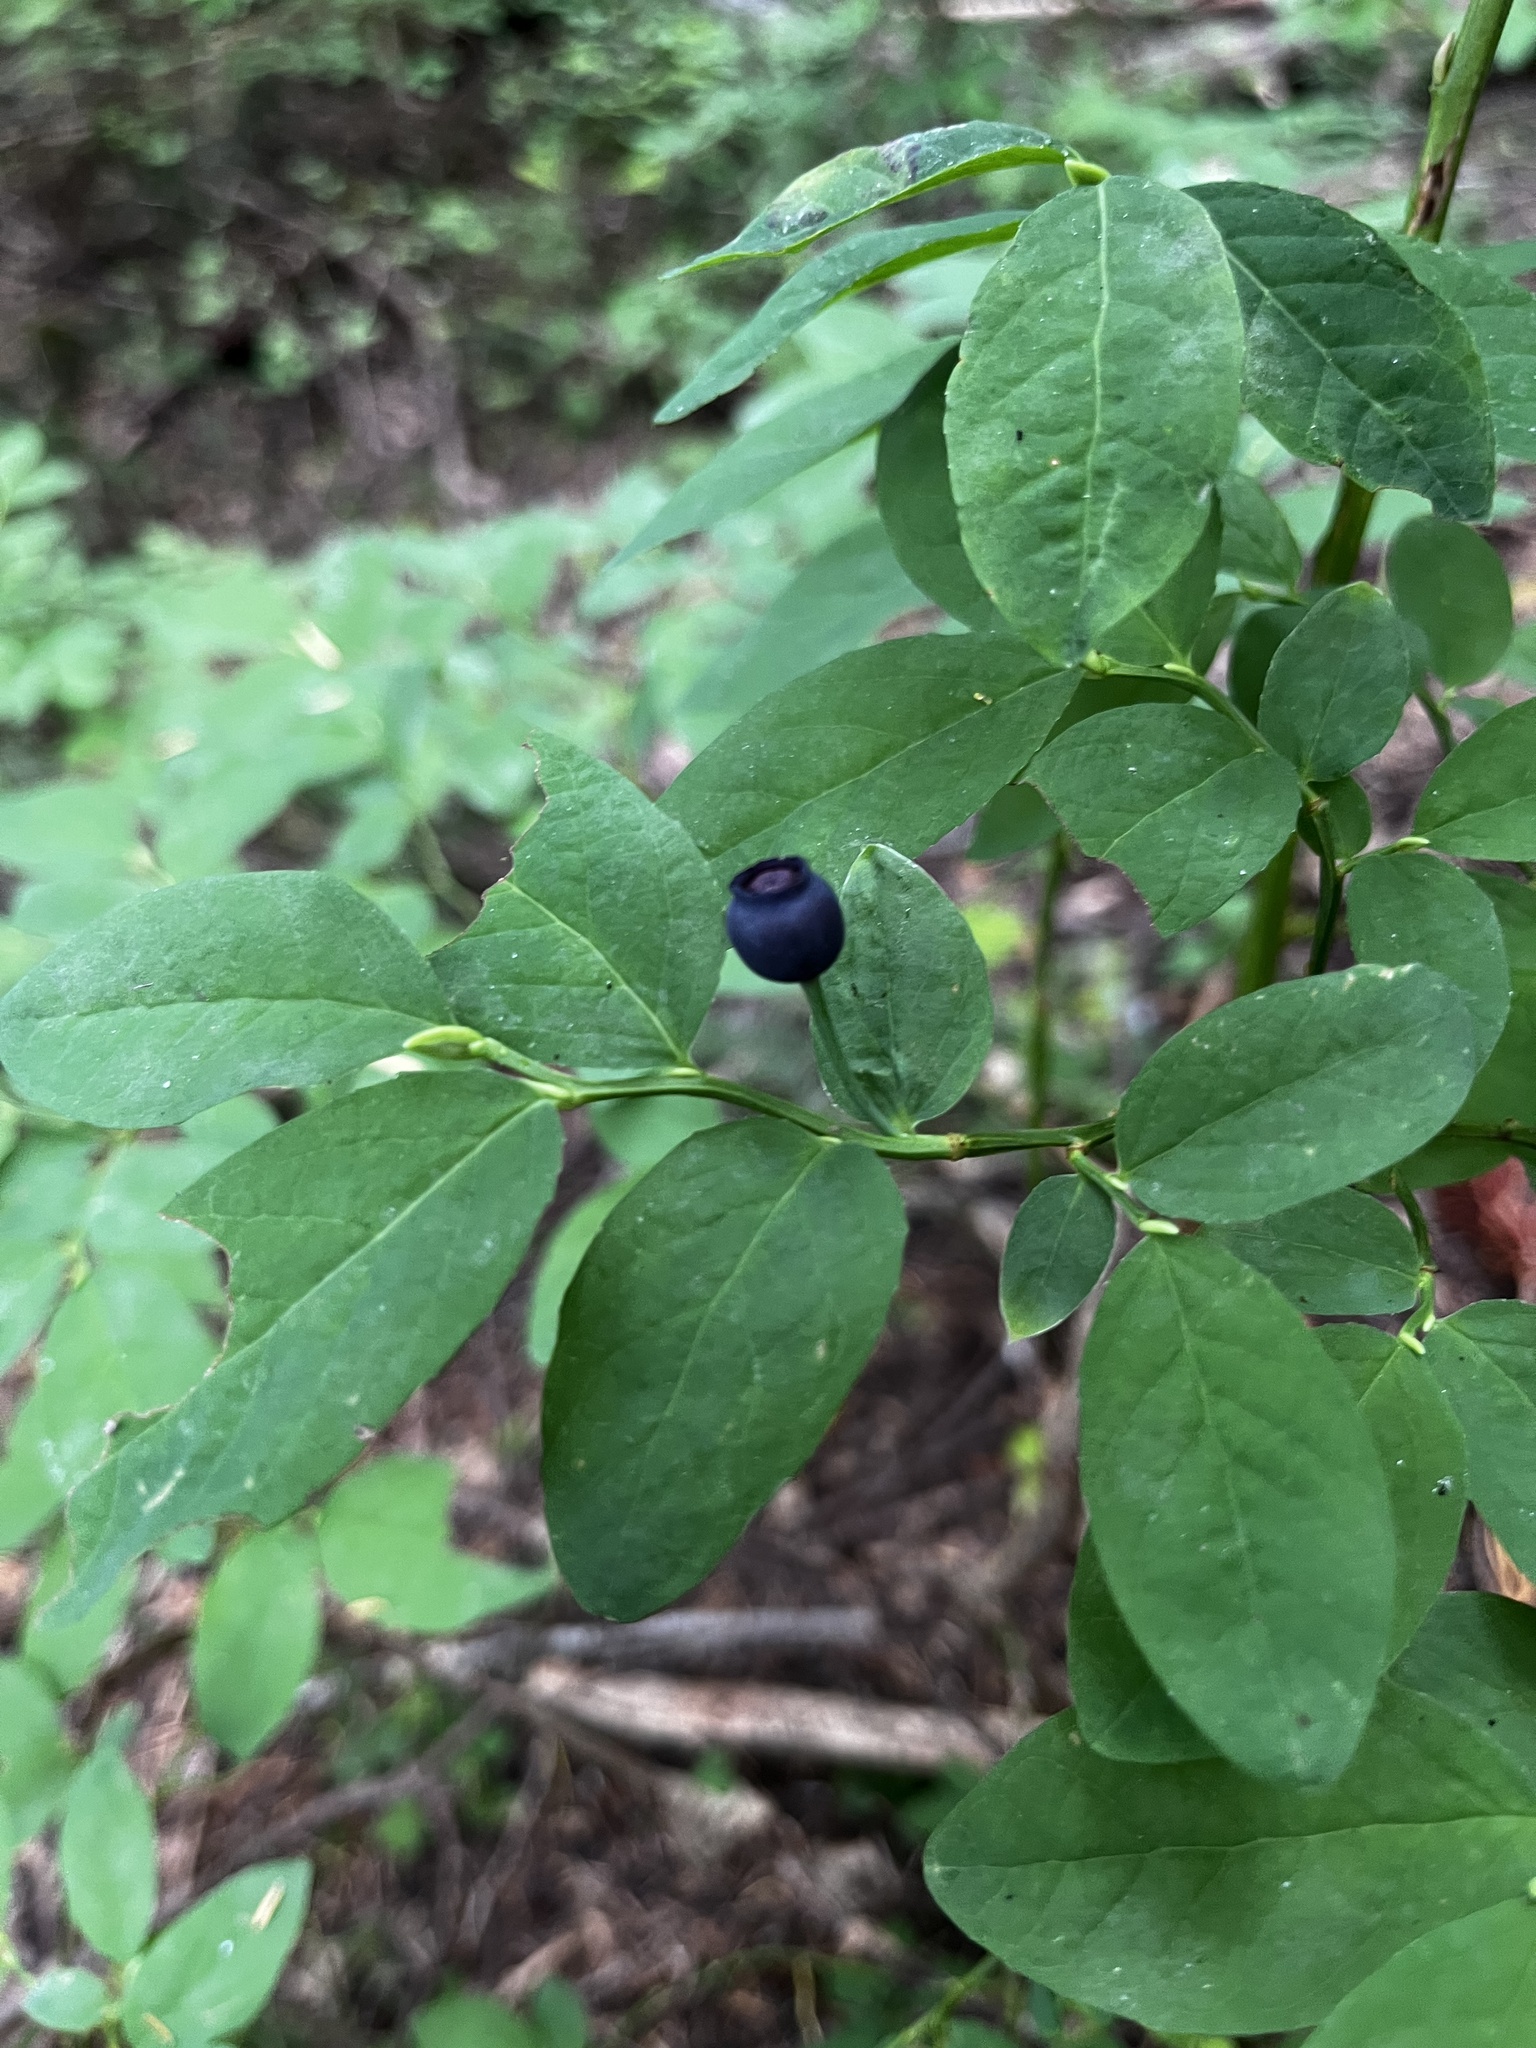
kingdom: Plantae
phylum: Tracheophyta
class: Magnoliopsida
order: Ericales
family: Ericaceae
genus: Vaccinium
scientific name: Vaccinium ovalifolium
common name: Early blueberry
